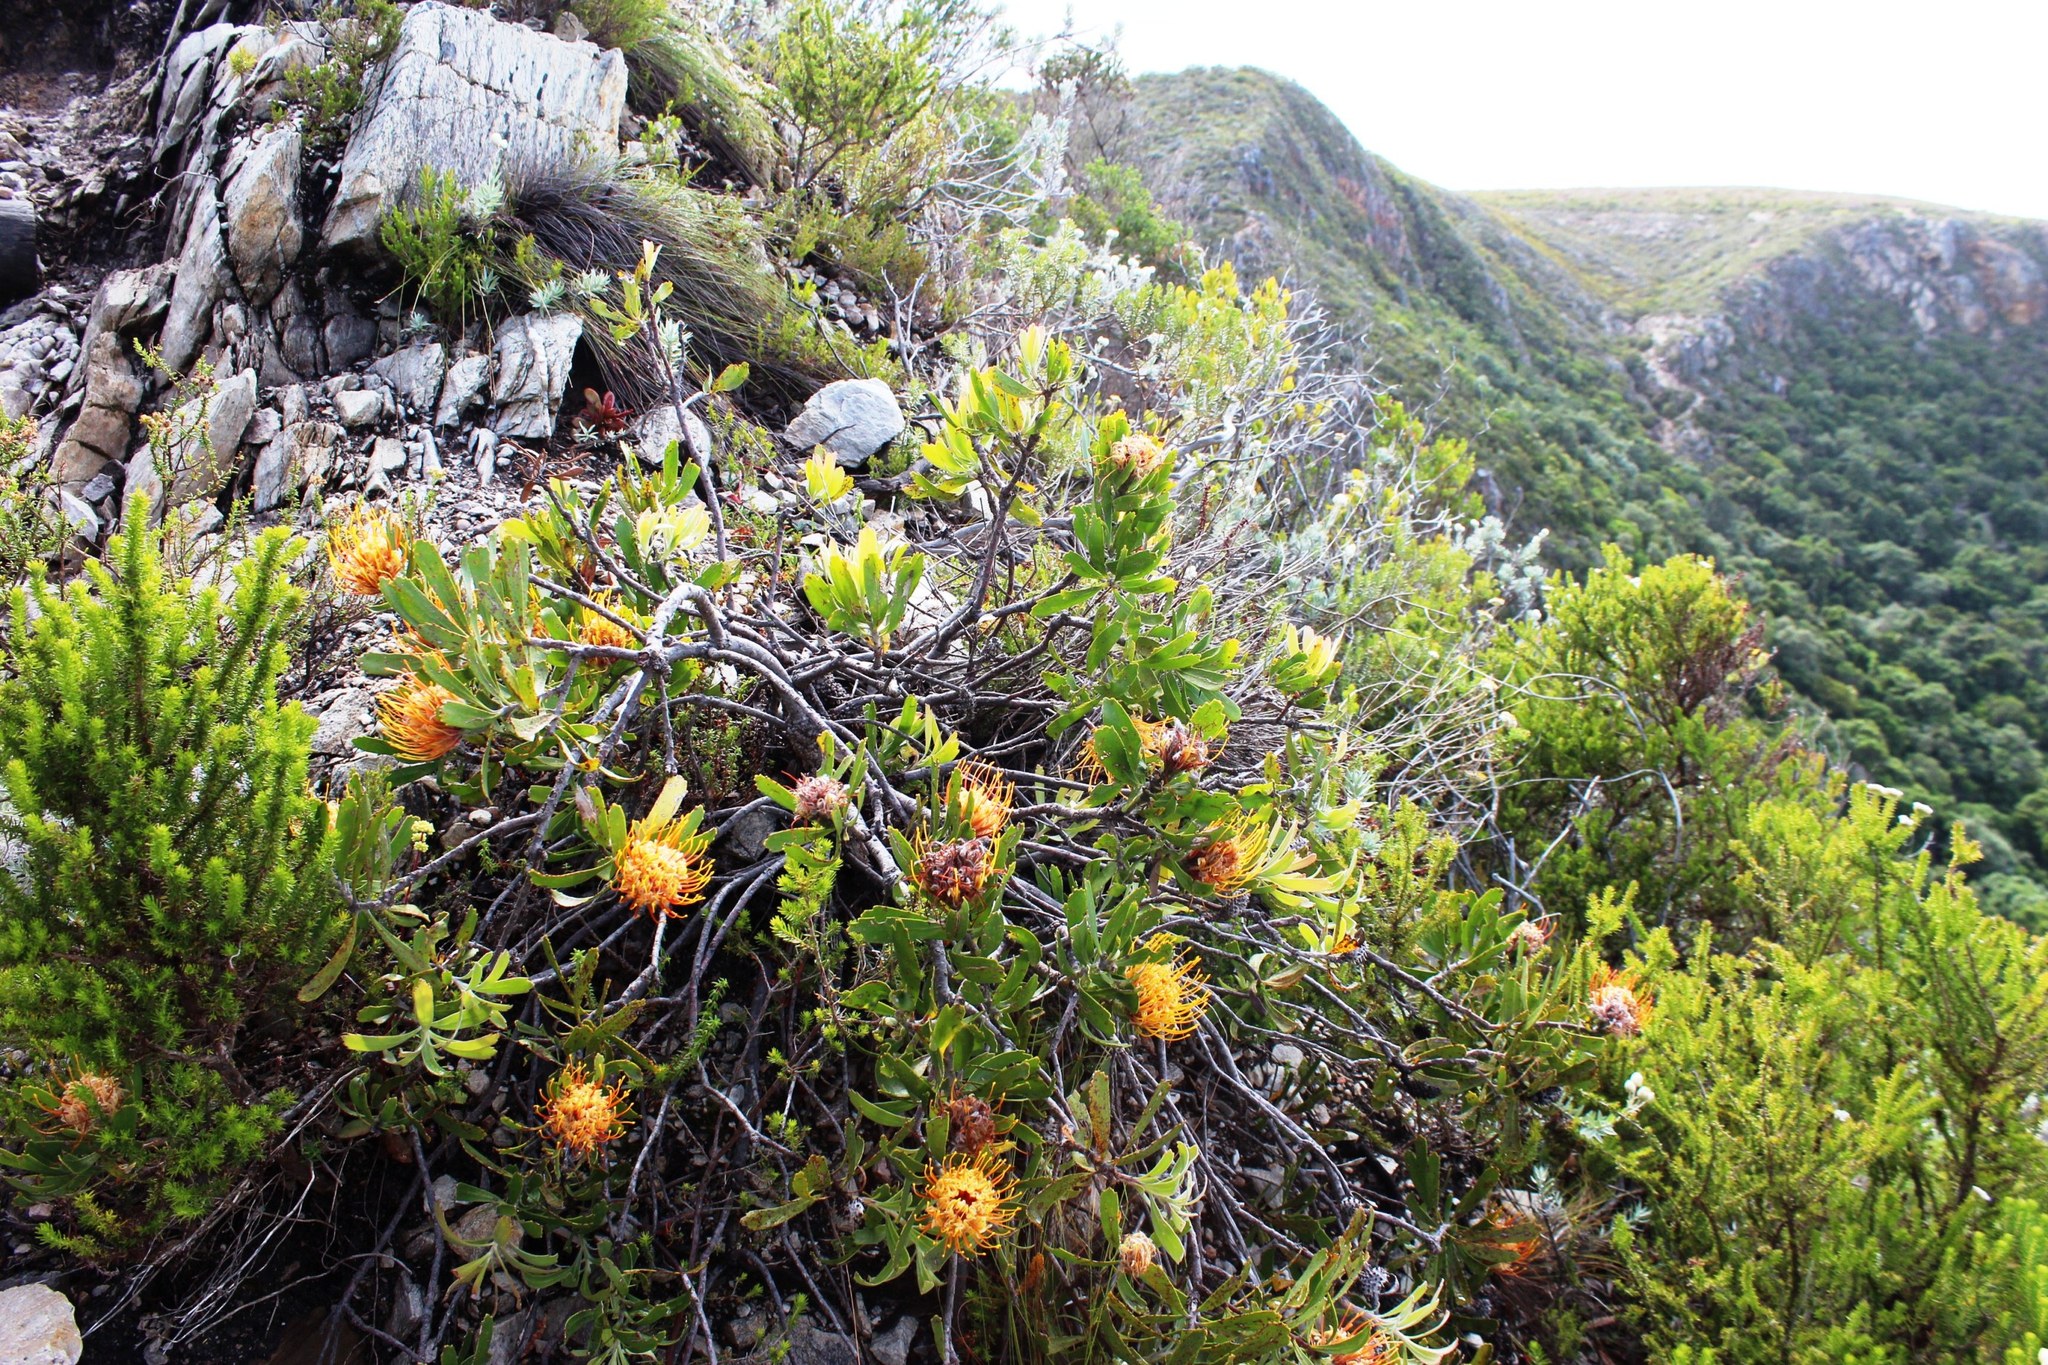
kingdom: Plantae
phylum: Tracheophyta
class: Magnoliopsida
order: Proteales
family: Proteaceae
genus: Leucospermum
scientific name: Leucospermum cuneiforme
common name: Common pincushion
